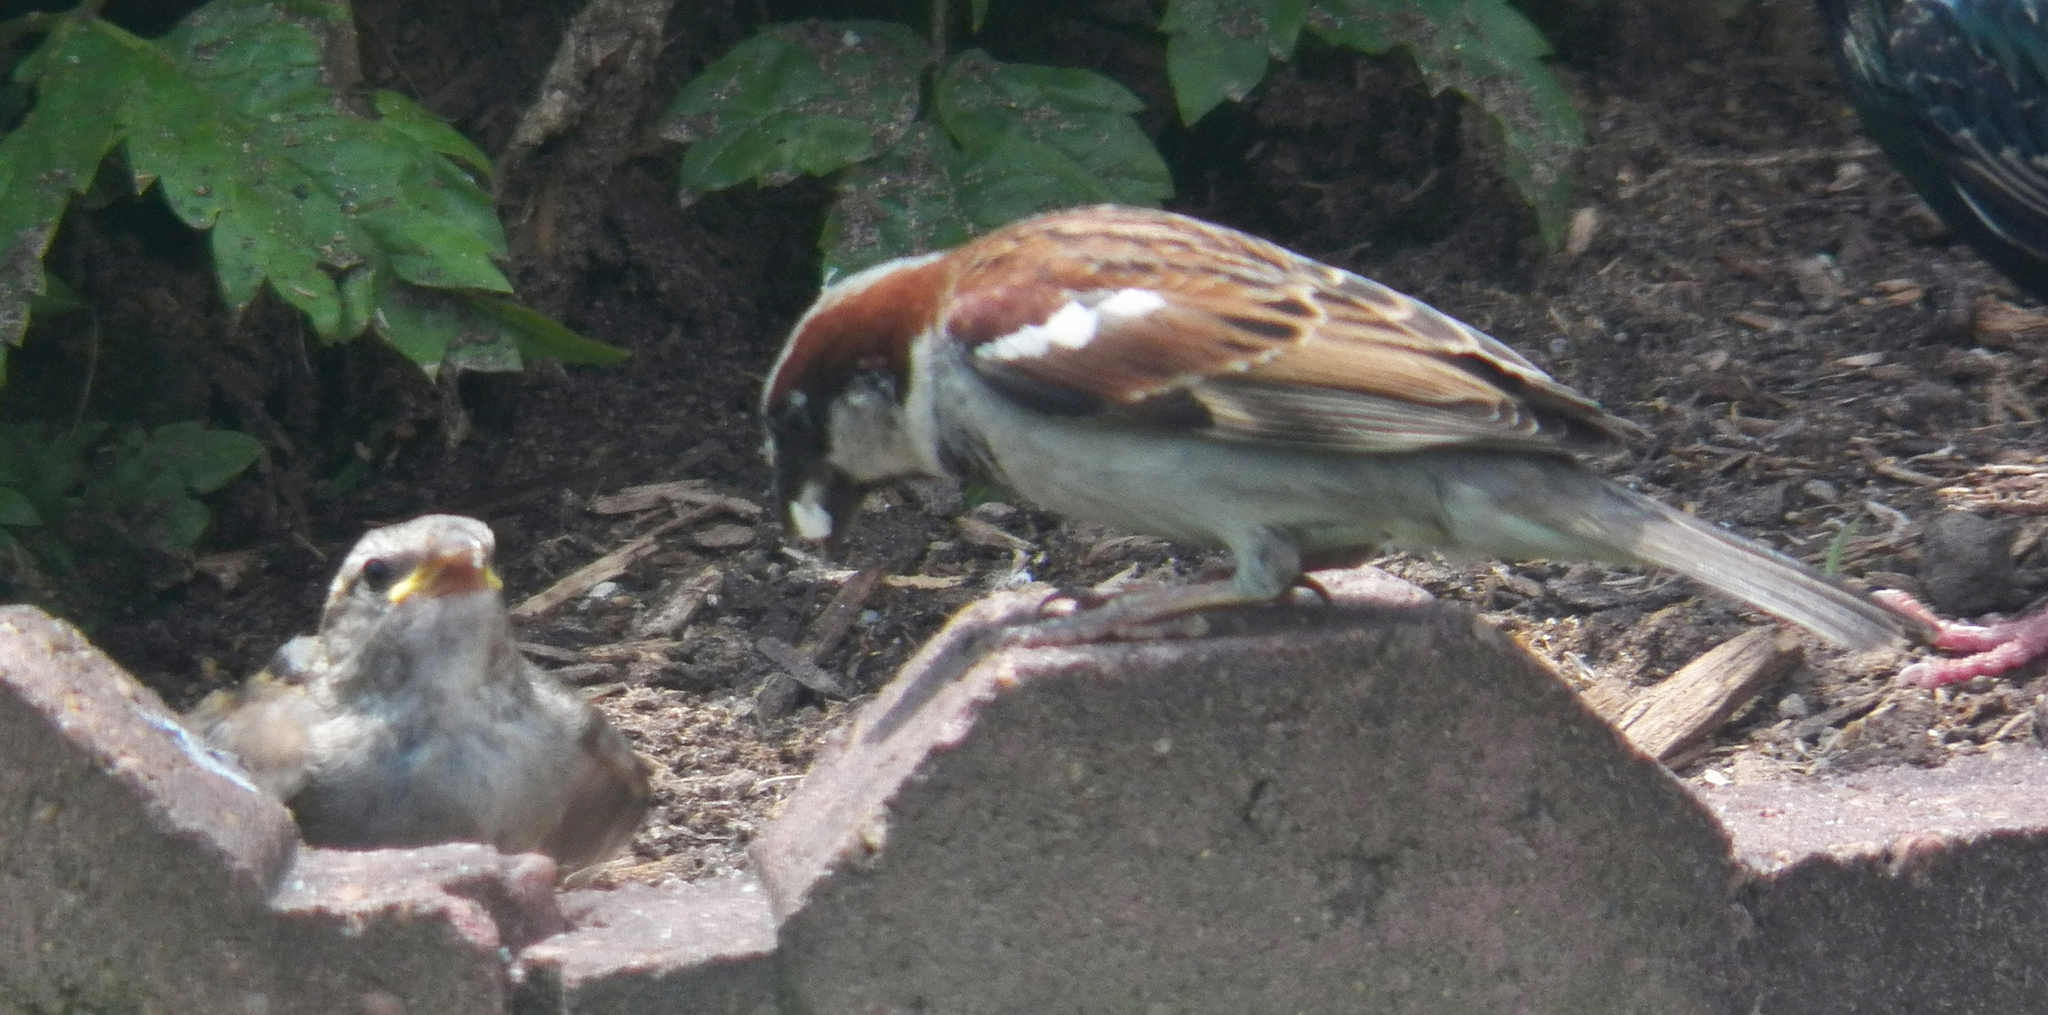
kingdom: Animalia
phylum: Chordata
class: Aves
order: Passeriformes
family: Passeridae
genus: Passer
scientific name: Passer domesticus
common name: House sparrow
